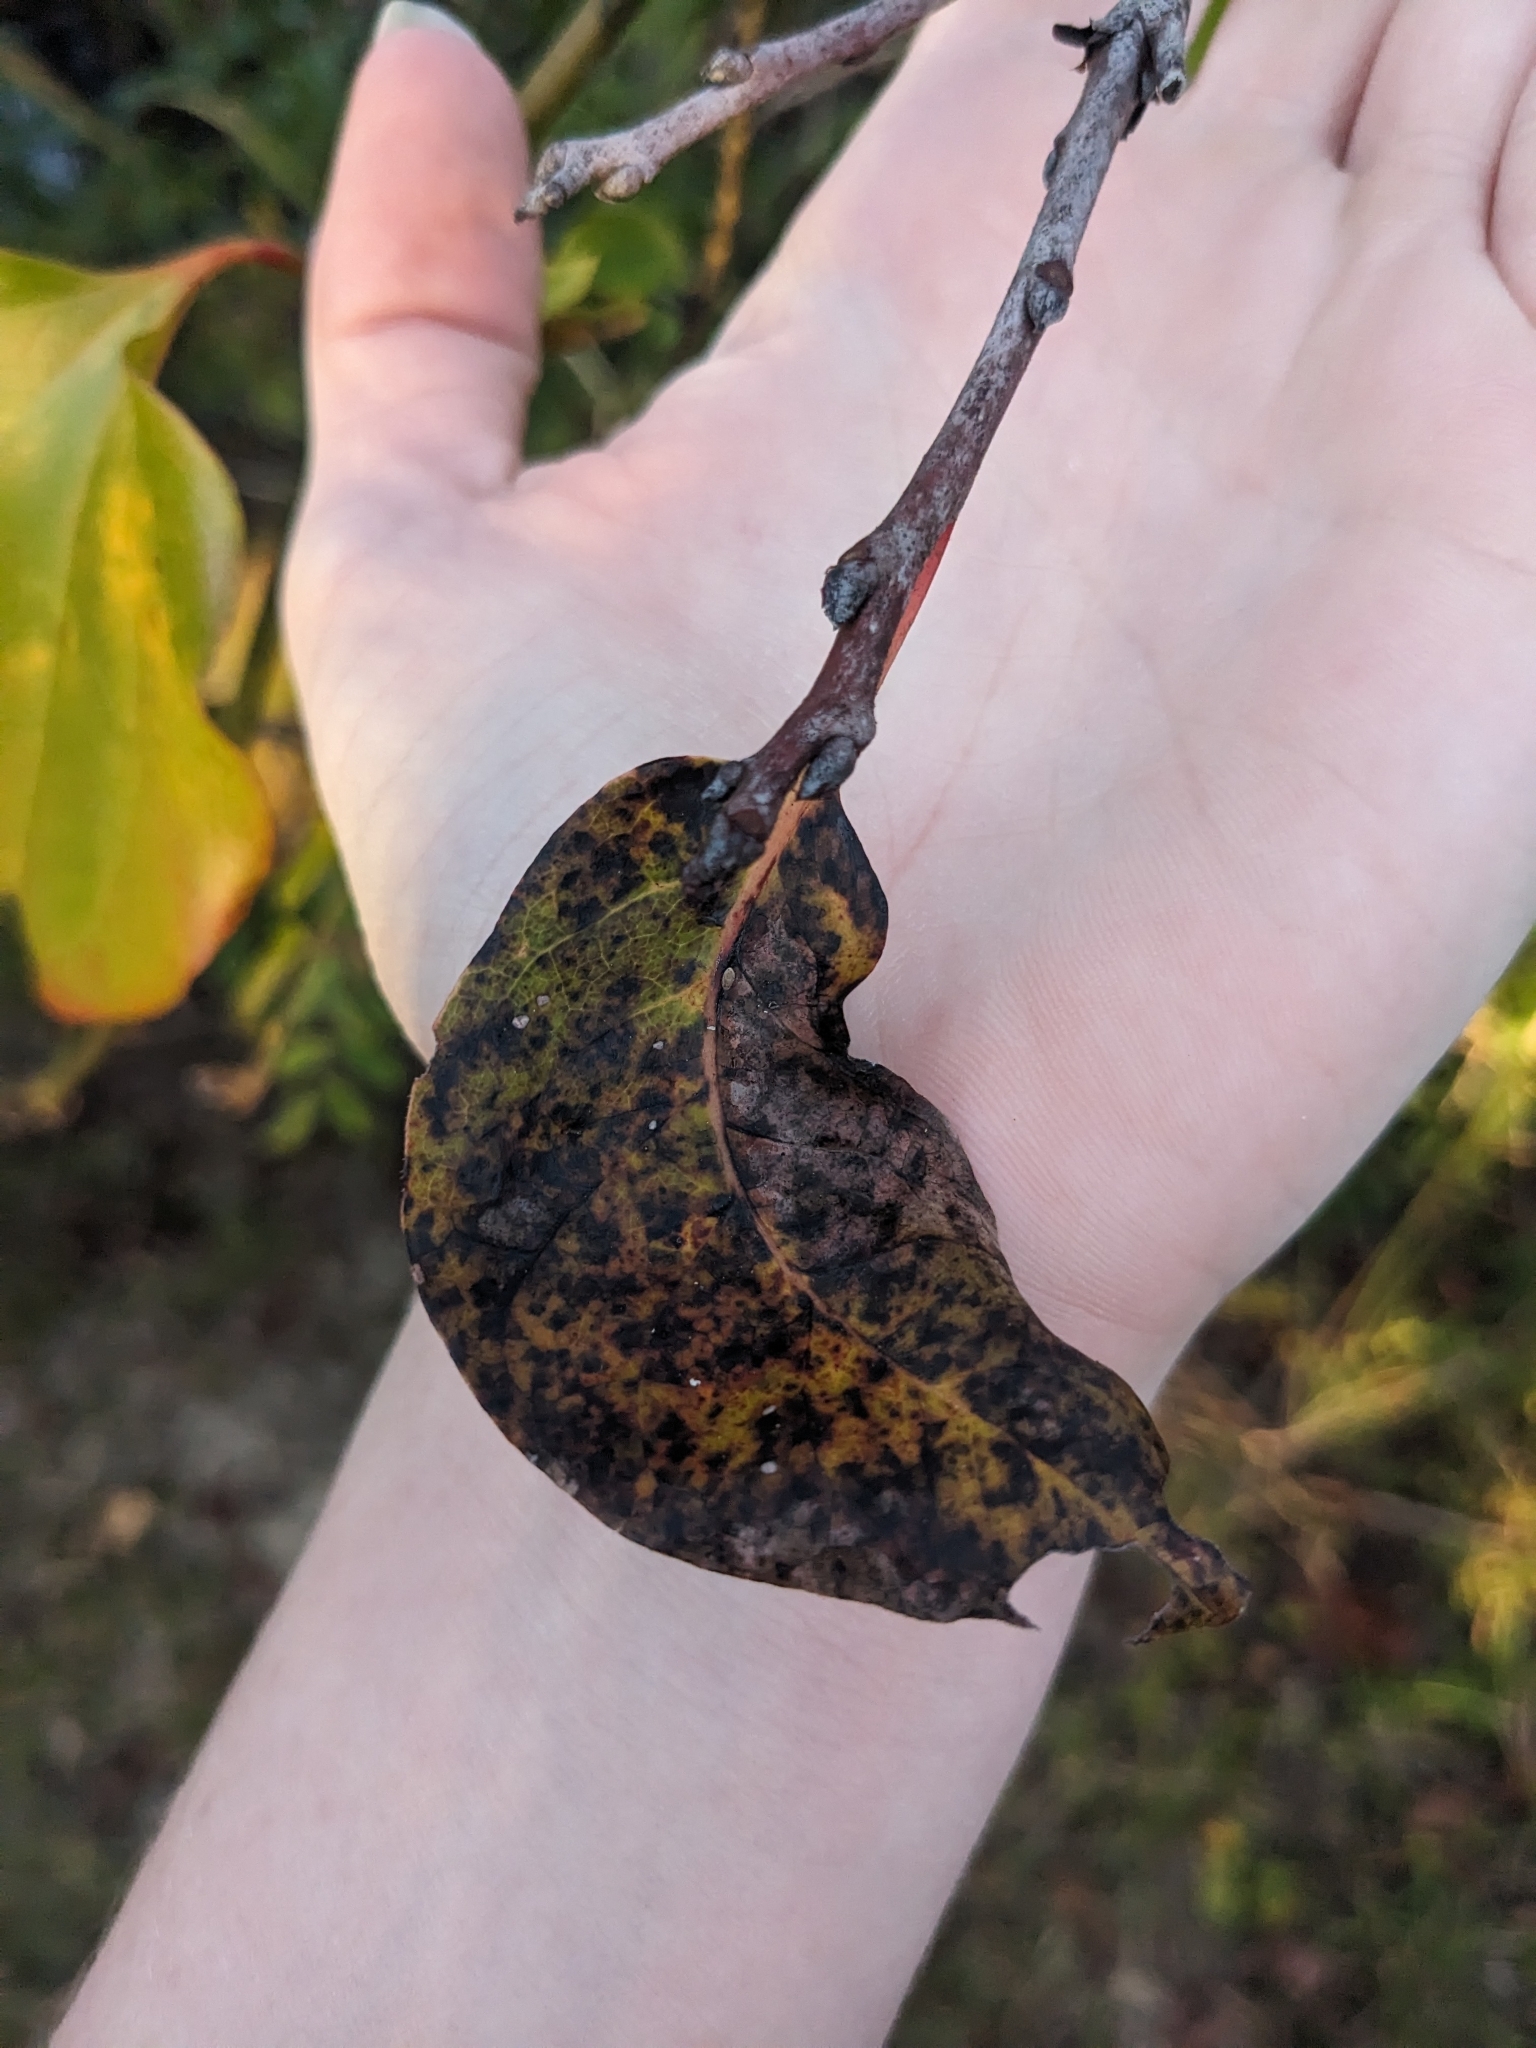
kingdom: Plantae
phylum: Tracheophyta
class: Magnoliopsida
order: Ericales
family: Ebenaceae
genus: Diospyros
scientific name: Diospyros virginiana
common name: Persimmon
